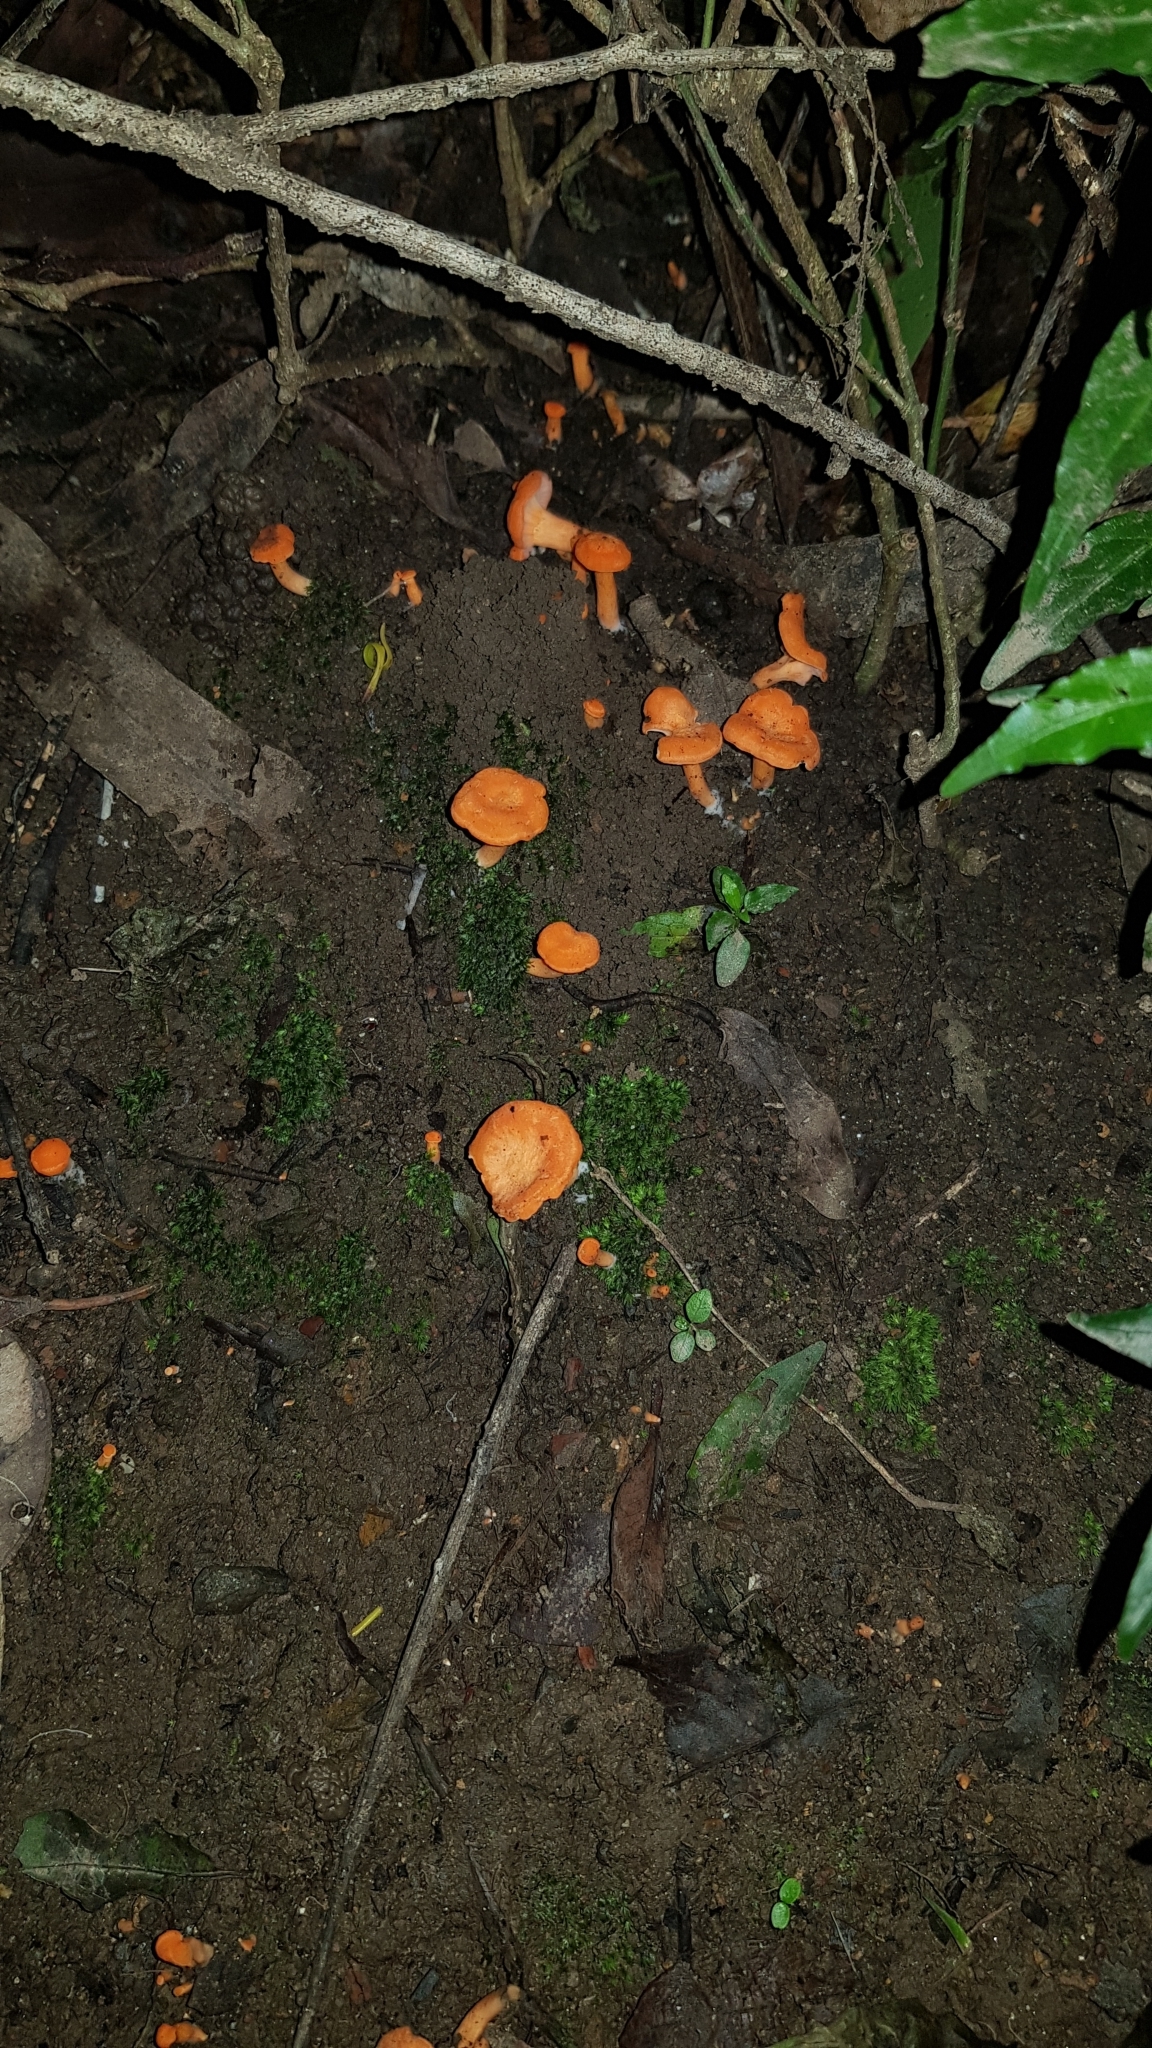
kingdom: Fungi
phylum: Basidiomycota
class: Agaricomycetes
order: Cantharellales
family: Hydnaceae
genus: Cantharellus
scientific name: Cantharellus
